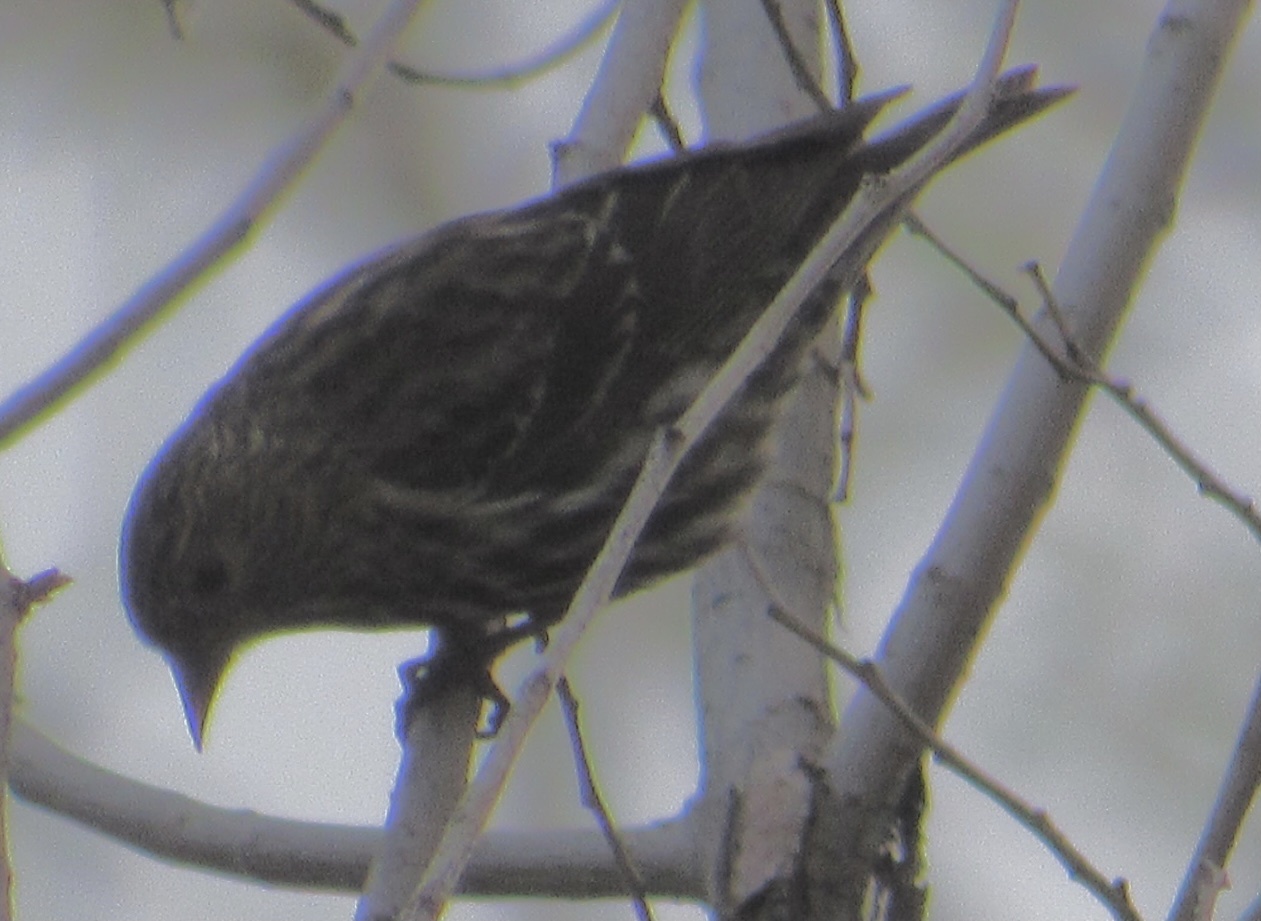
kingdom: Animalia
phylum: Chordata
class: Aves
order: Passeriformes
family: Fringillidae
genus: Spinus
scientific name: Spinus pinus
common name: Pine siskin
